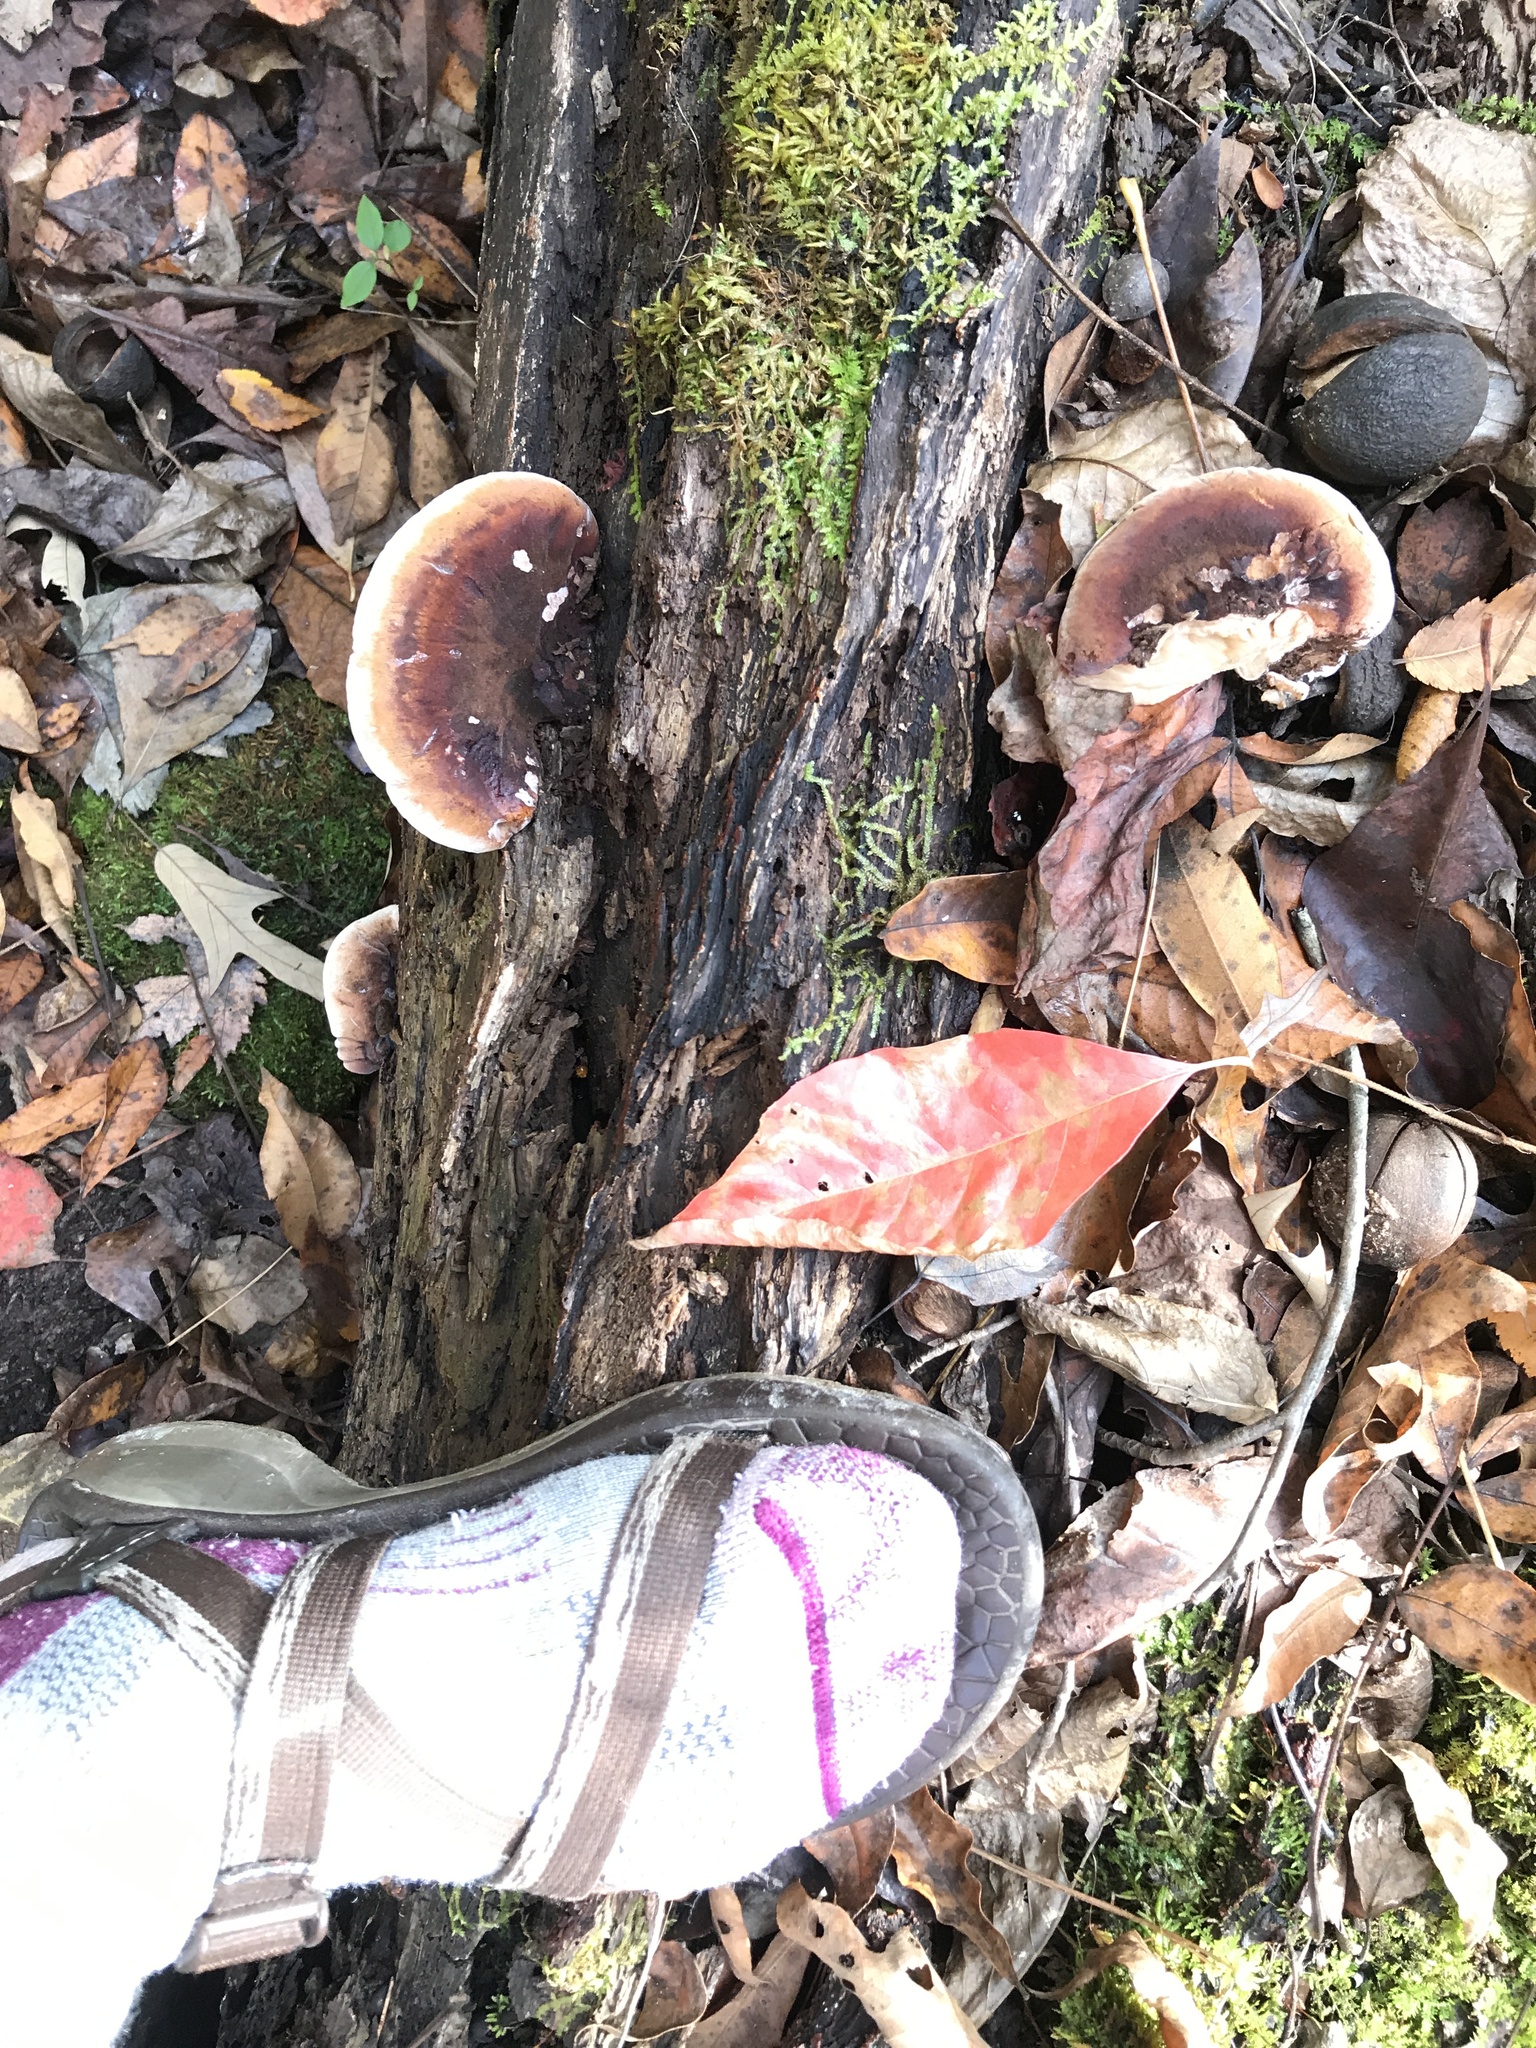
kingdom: Fungi
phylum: Basidiomycota
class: Agaricomycetes
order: Polyporales
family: Ischnodermataceae
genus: Ischnoderma
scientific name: Ischnoderma resinosum
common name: Resinous polypore
